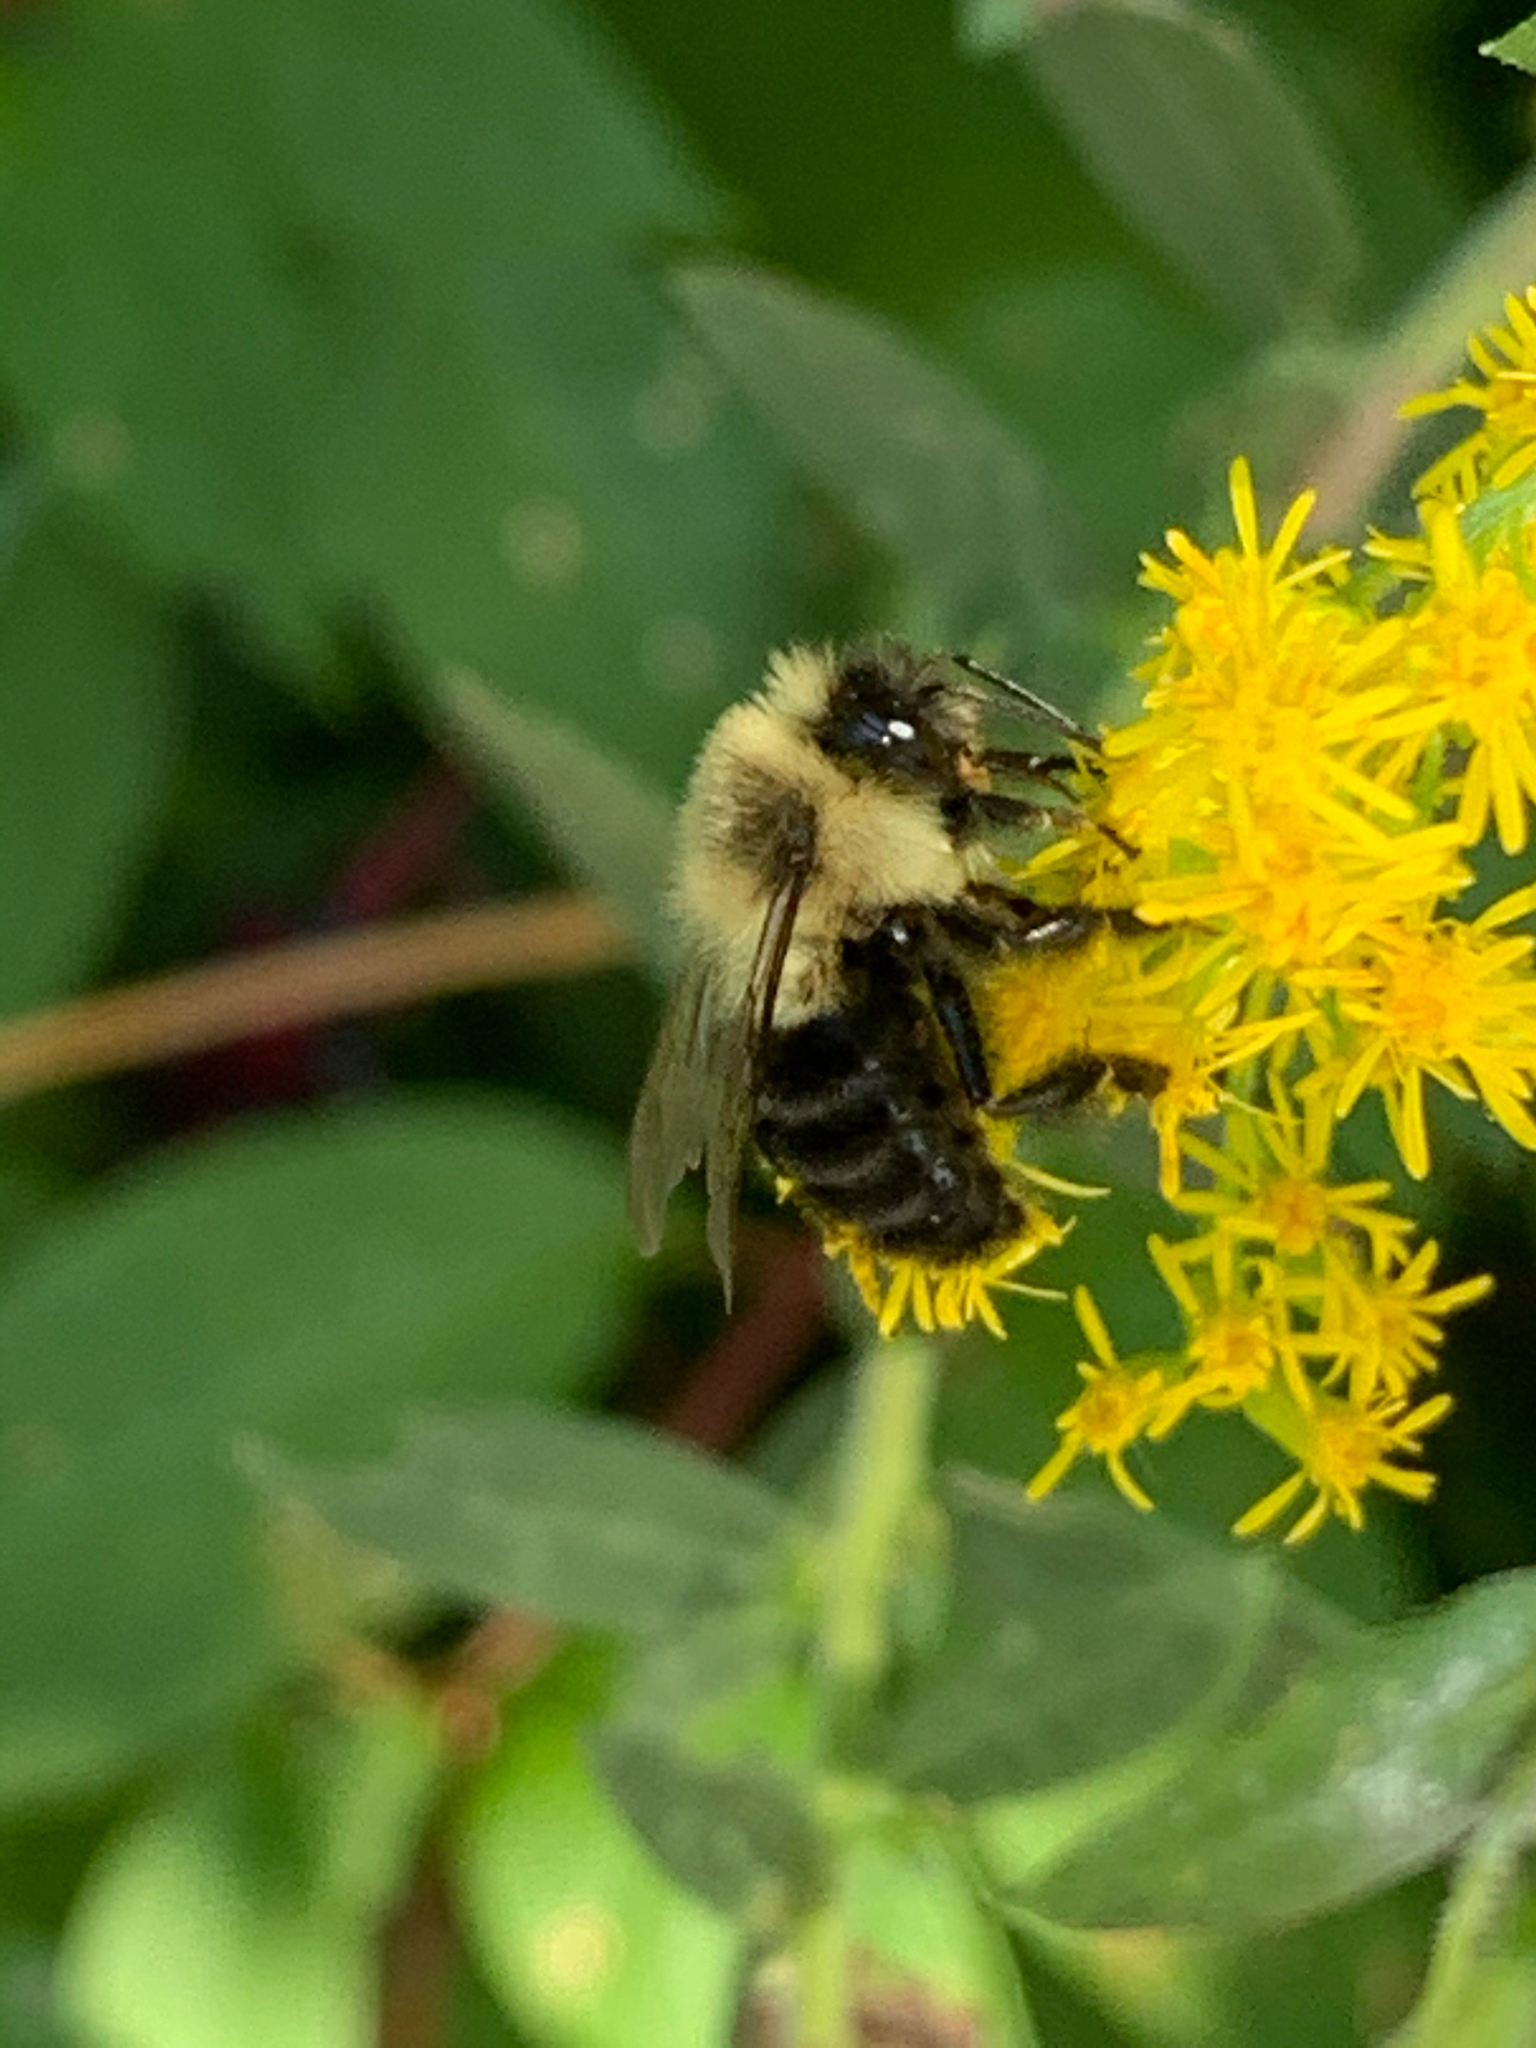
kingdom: Animalia
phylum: Arthropoda
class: Insecta
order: Hymenoptera
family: Apidae
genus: Bombus
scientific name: Bombus impatiens
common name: Common eastern bumble bee
